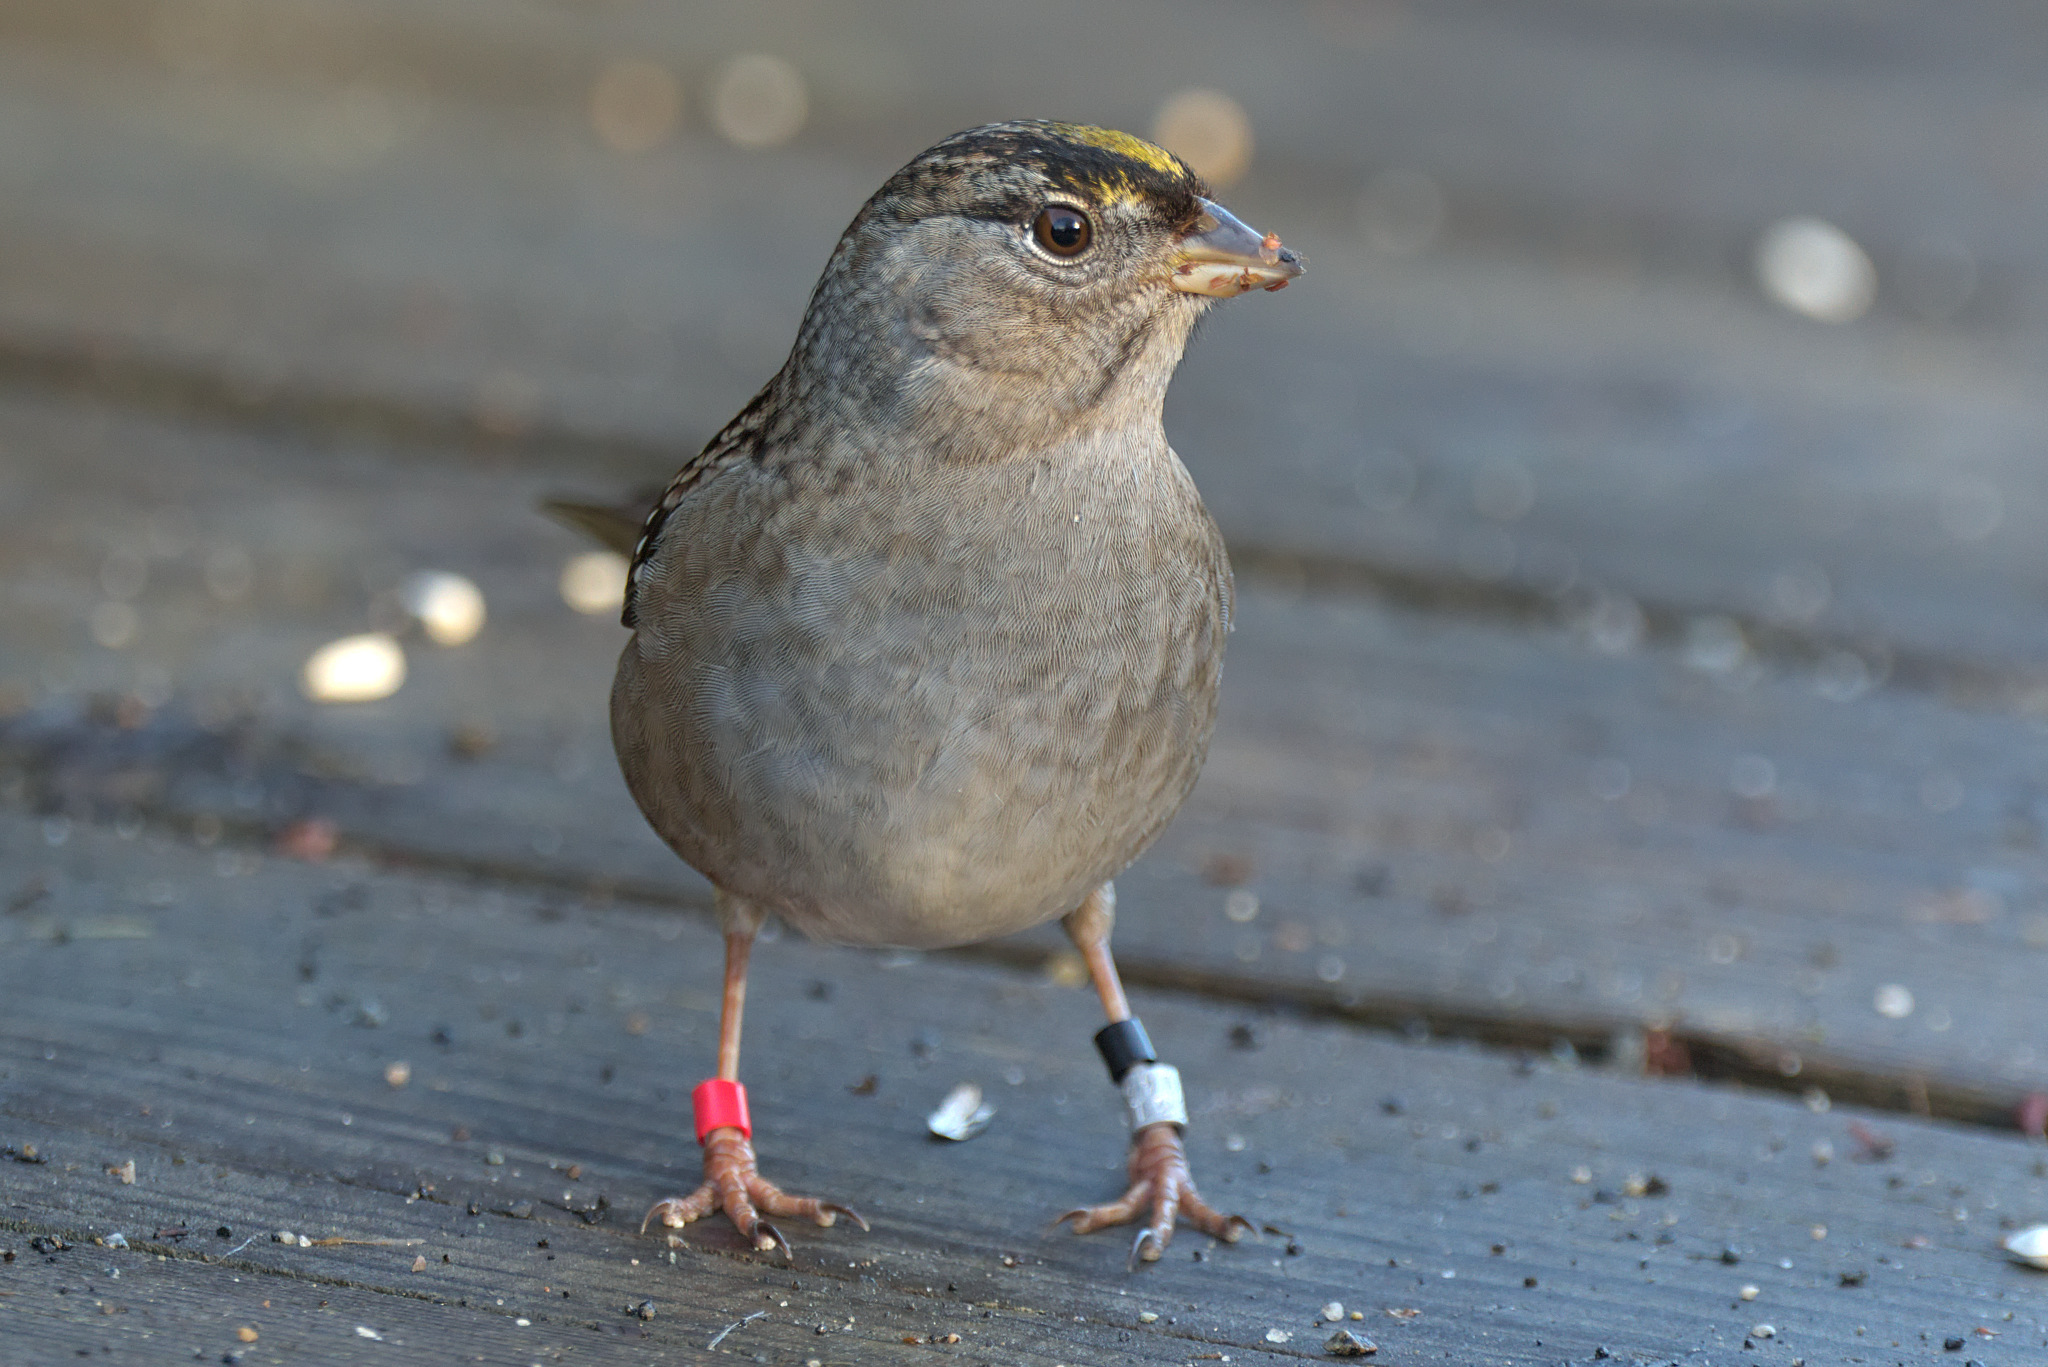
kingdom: Animalia
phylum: Chordata
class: Aves
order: Passeriformes
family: Passerellidae
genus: Zonotrichia
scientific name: Zonotrichia atricapilla
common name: Golden-crowned sparrow
